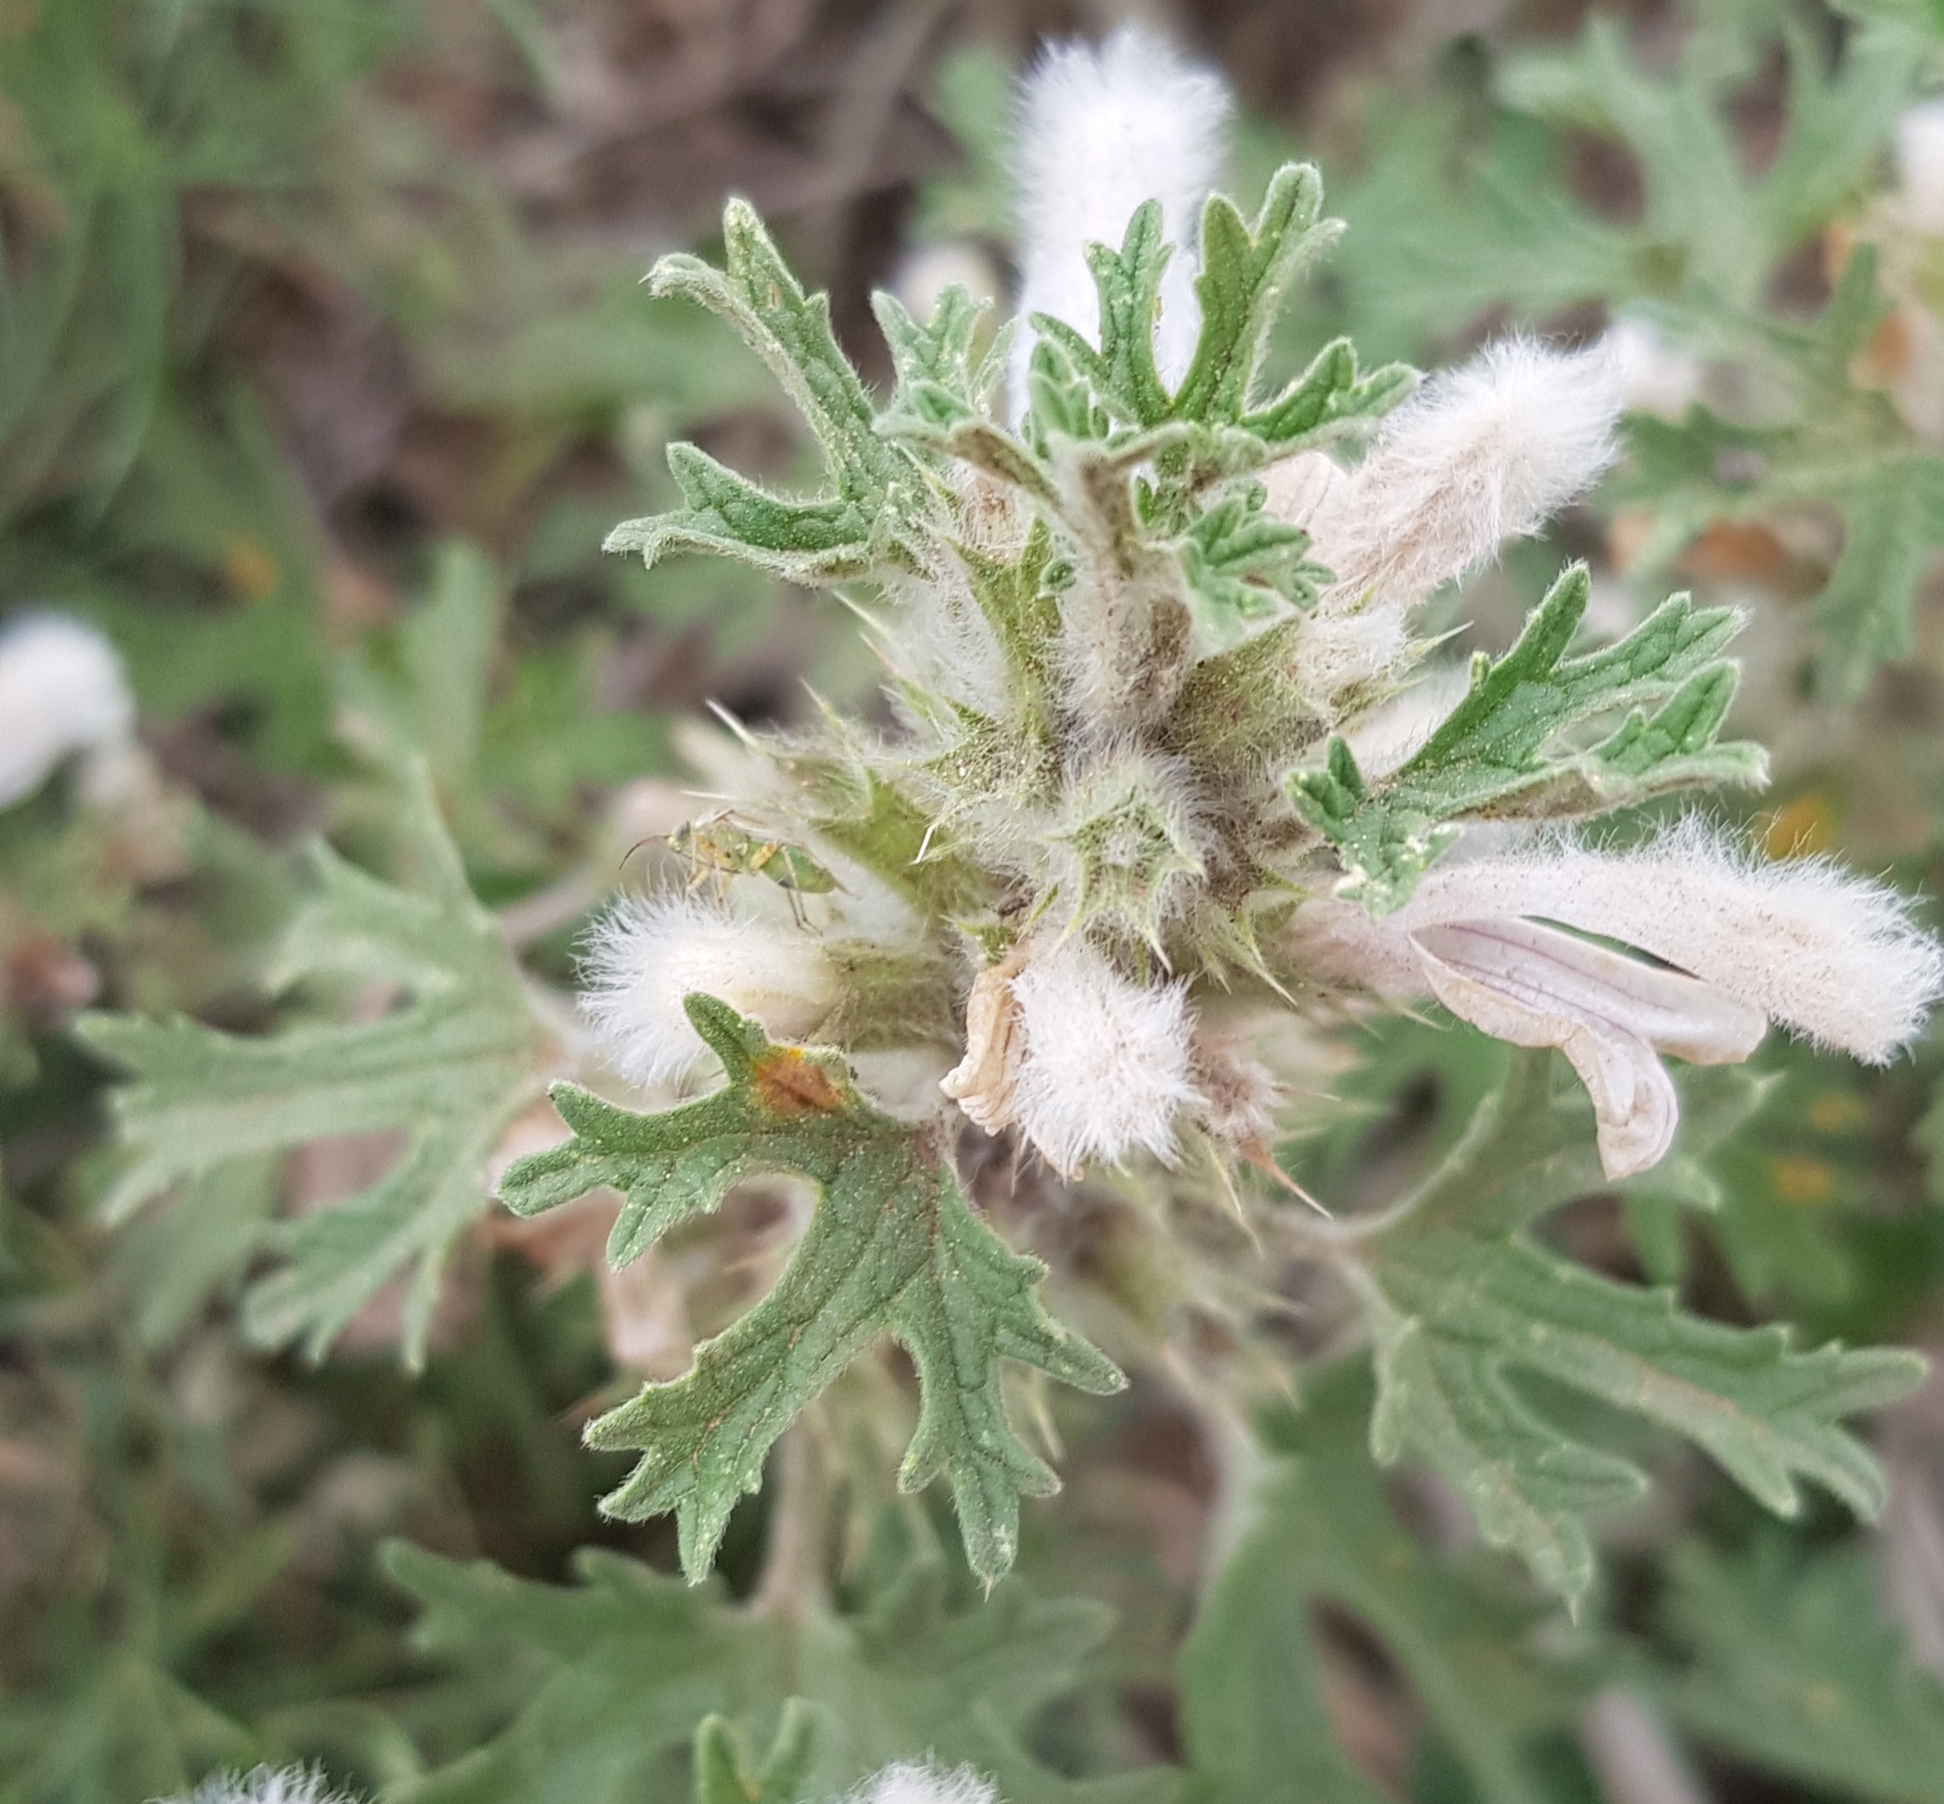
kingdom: Plantae
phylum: Tracheophyta
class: Magnoliopsida
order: Lamiales
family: Lamiaceae
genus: Panzerina
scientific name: Panzerina lanata
